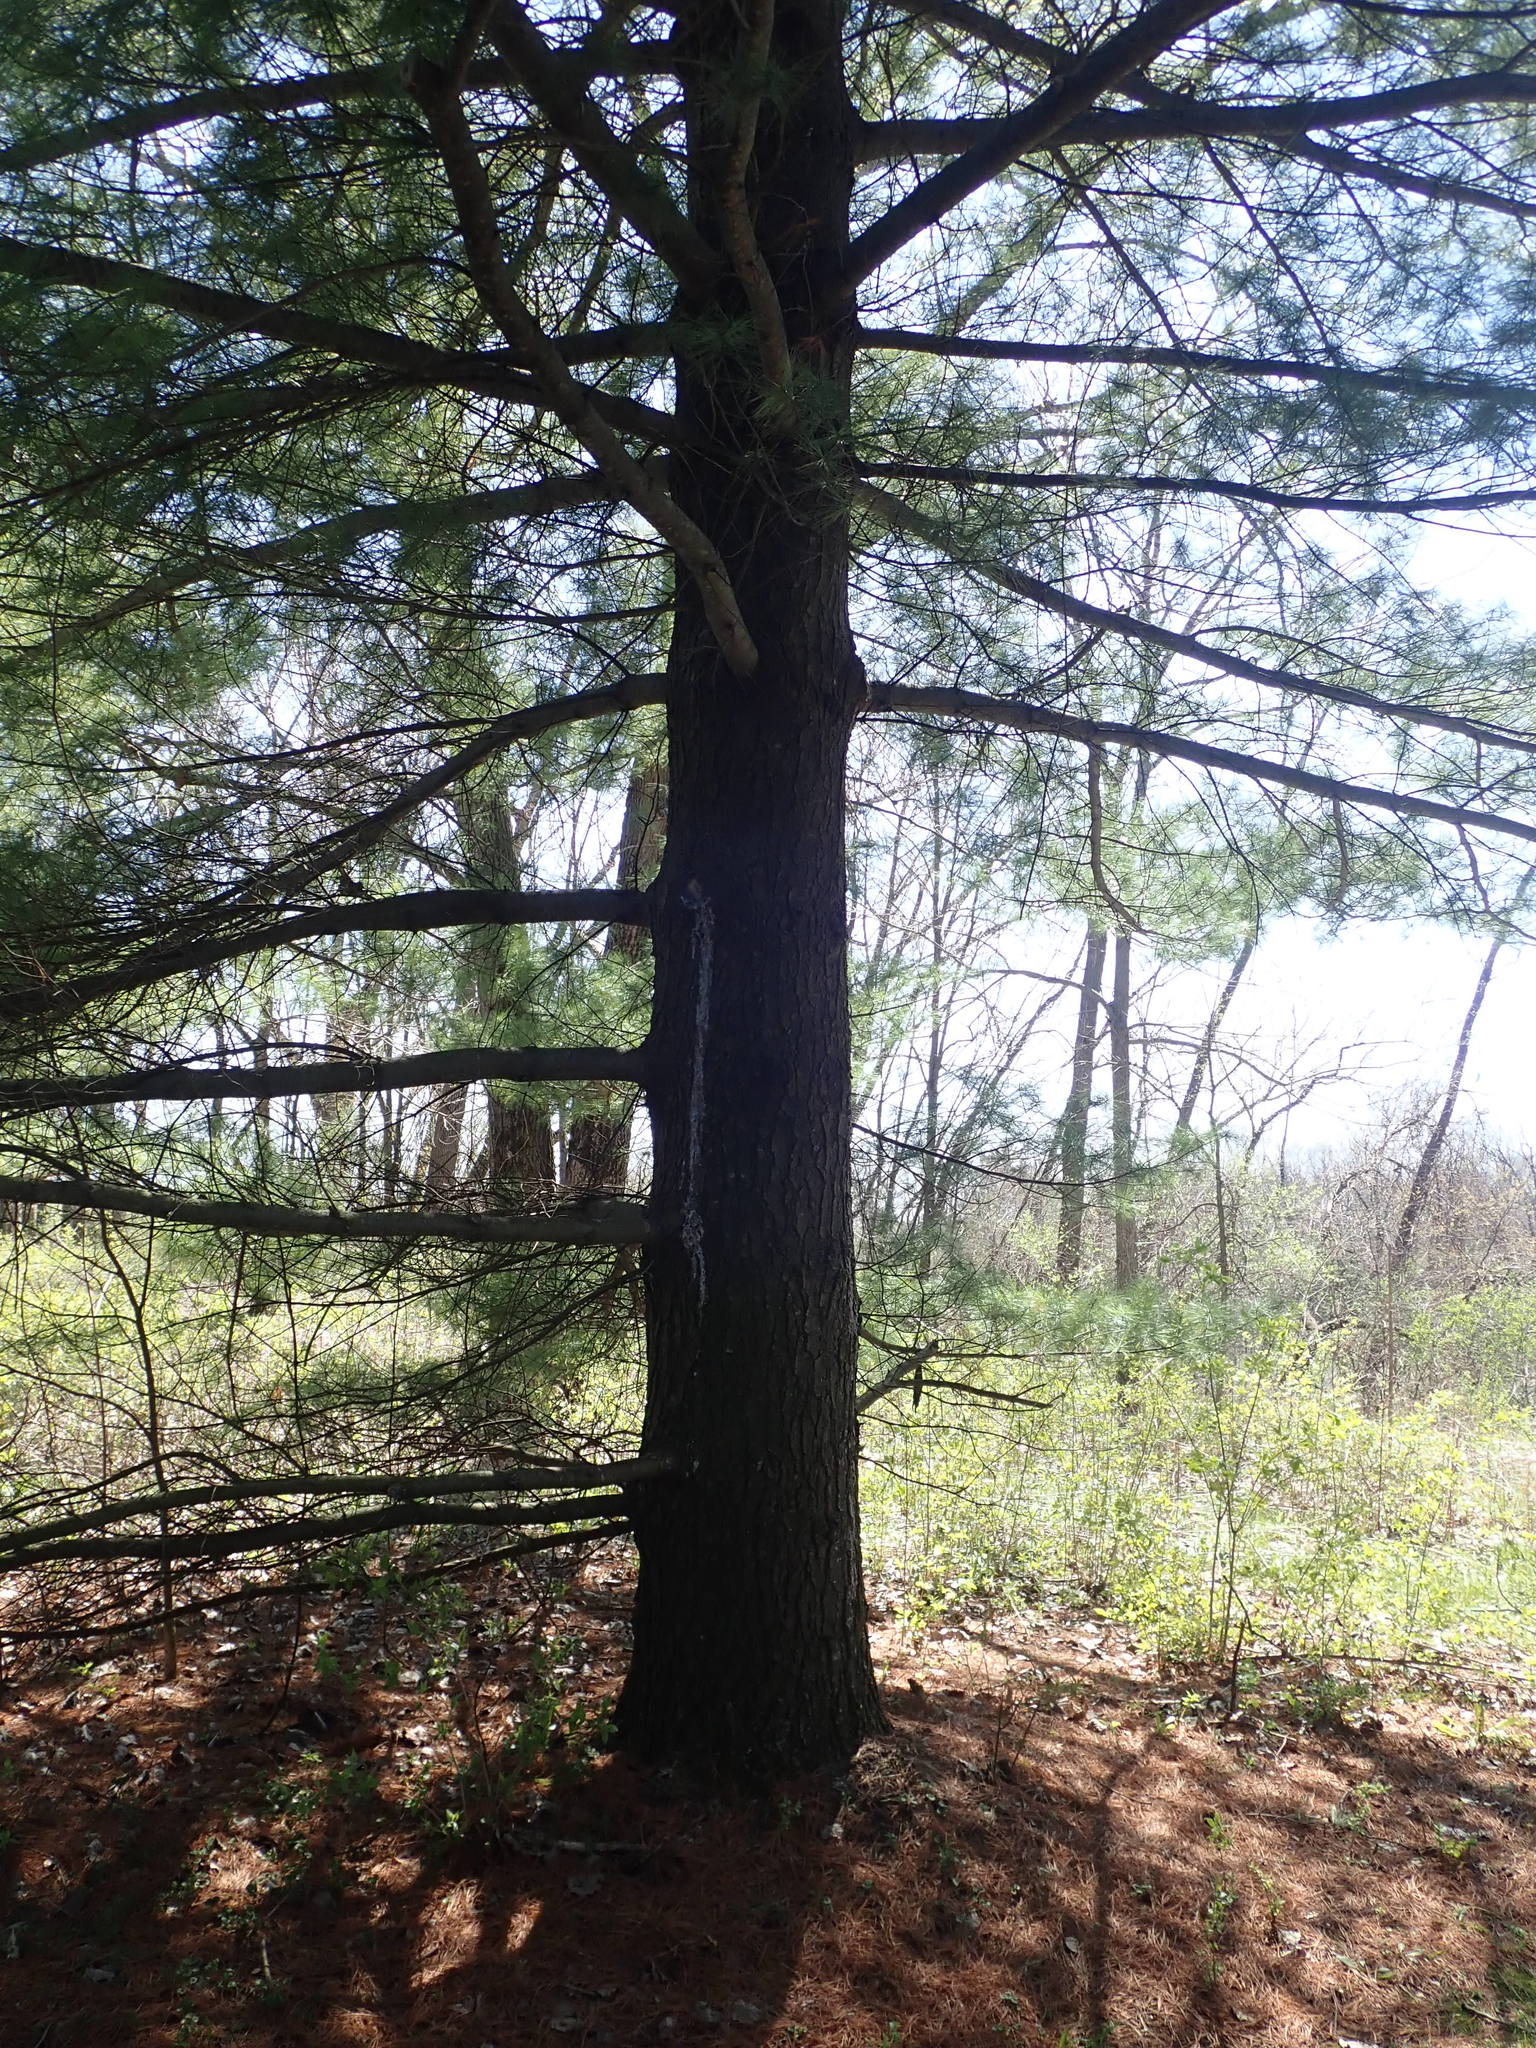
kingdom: Plantae
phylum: Tracheophyta
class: Pinopsida
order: Pinales
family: Pinaceae
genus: Pinus
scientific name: Pinus strobus
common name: Weymouth pine
